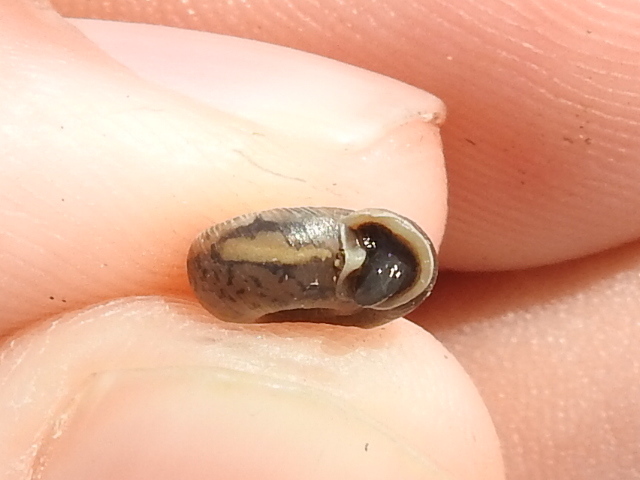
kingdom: Animalia
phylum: Mollusca
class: Gastropoda
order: Stylommatophora
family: Polygyridae
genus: Polygyra
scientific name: Polygyra cereolus
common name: Southern flatcone snail
